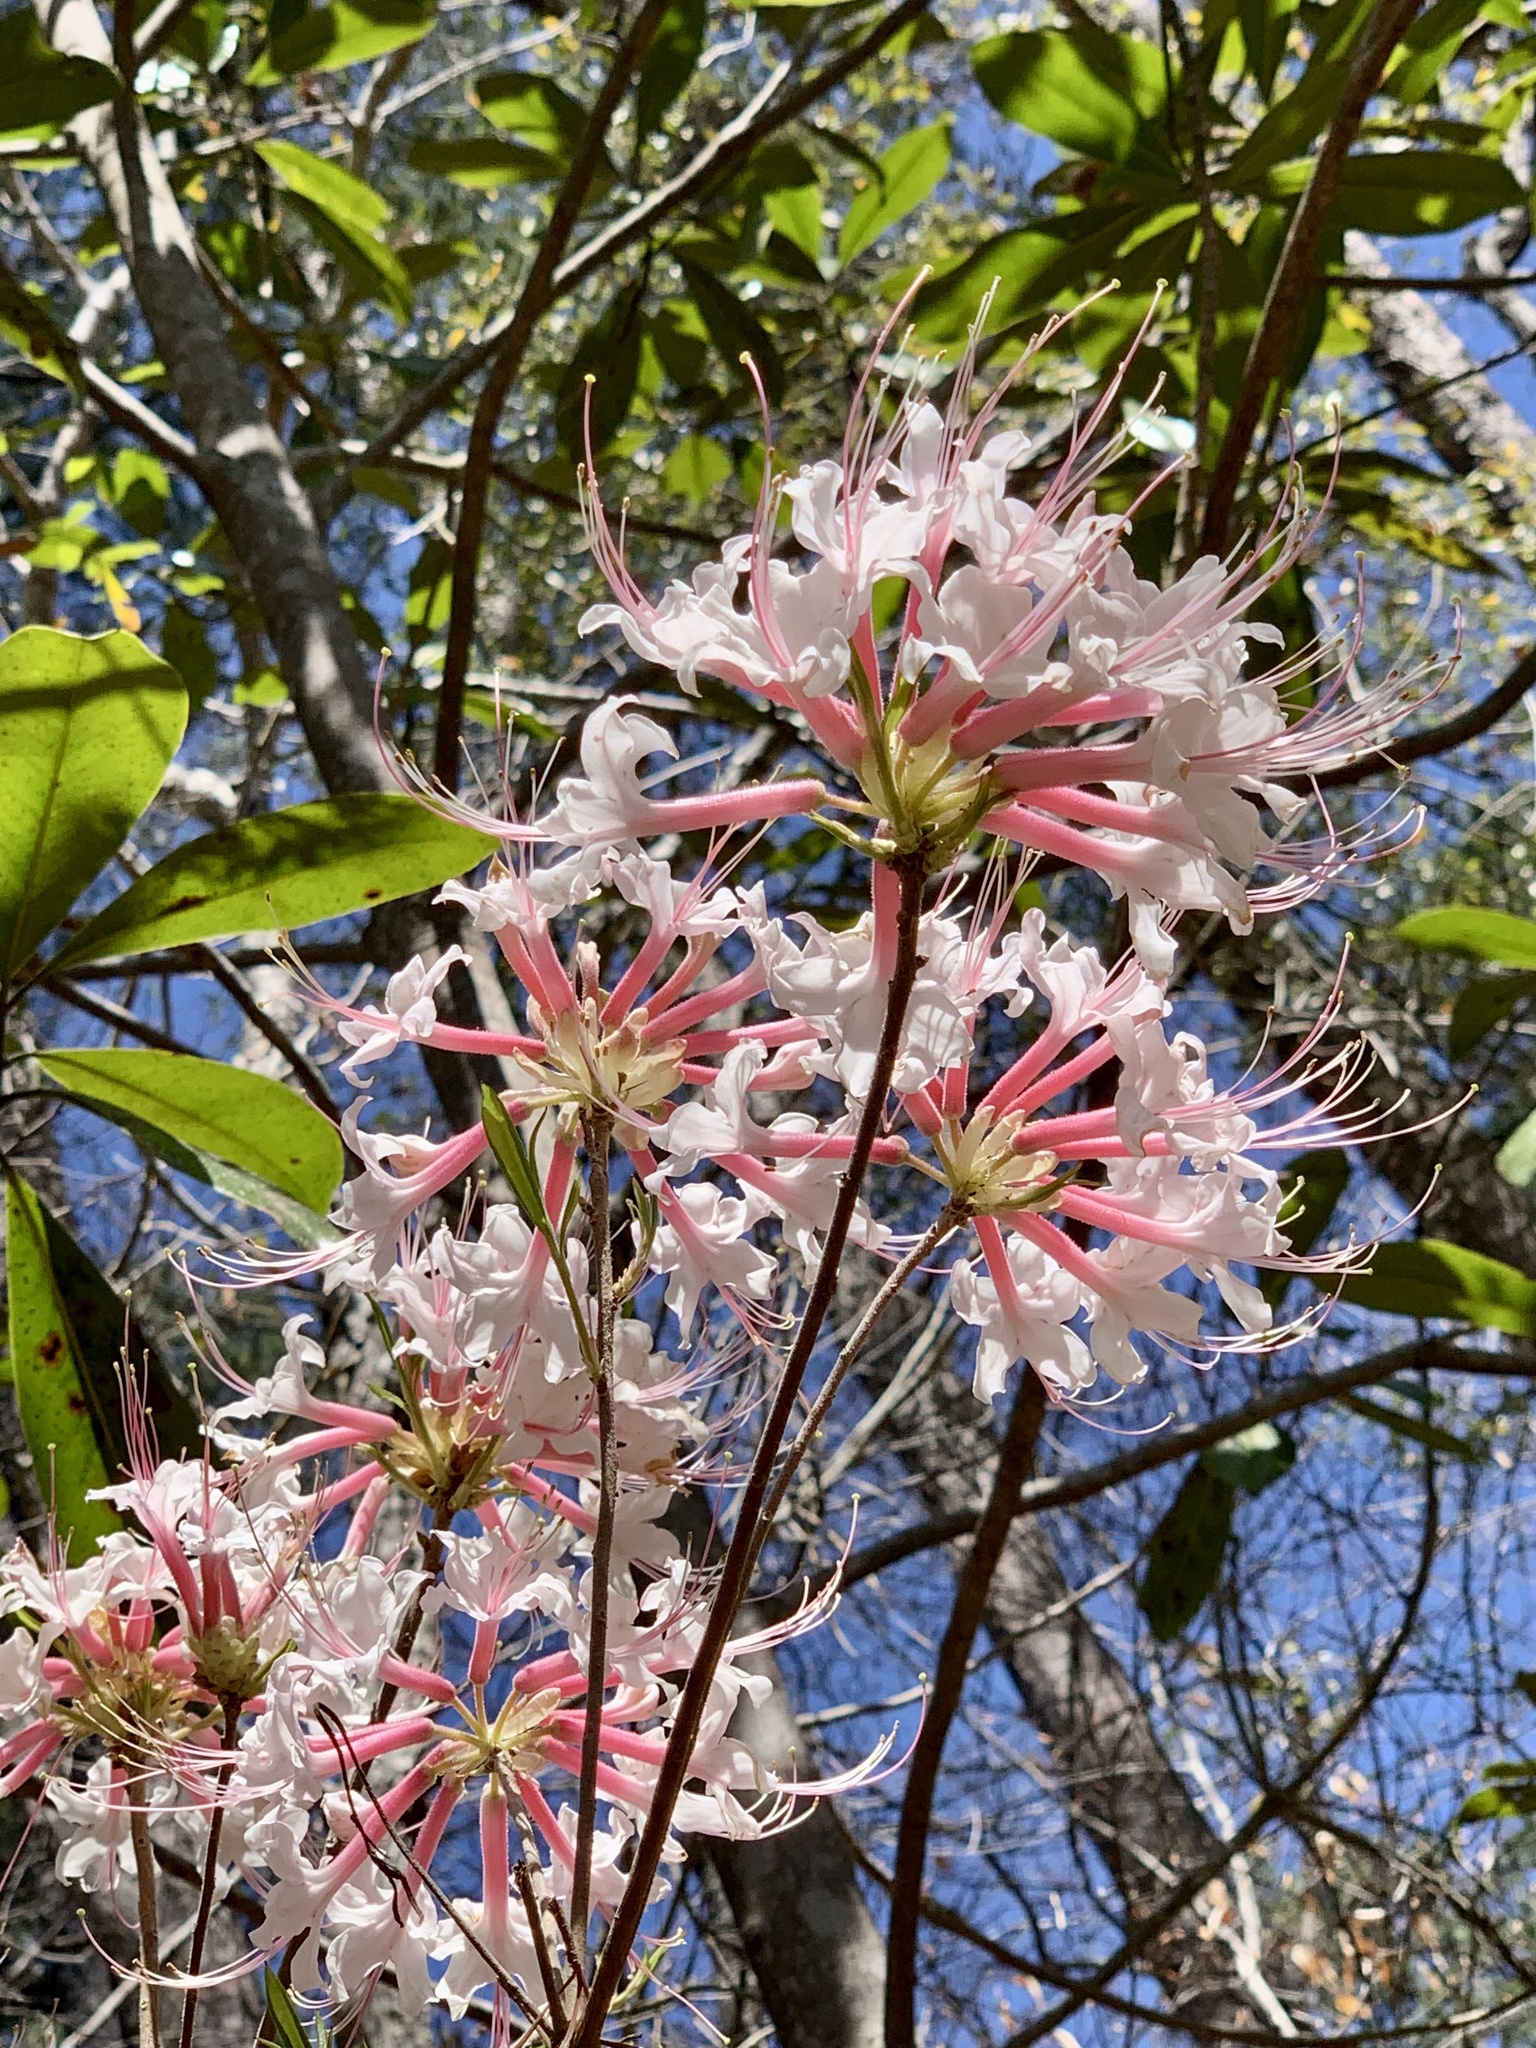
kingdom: Plantae
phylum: Tracheophyta
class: Magnoliopsida
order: Ericales
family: Ericaceae
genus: Rhododendron
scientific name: Rhododendron canescens
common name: Mountain azalea
